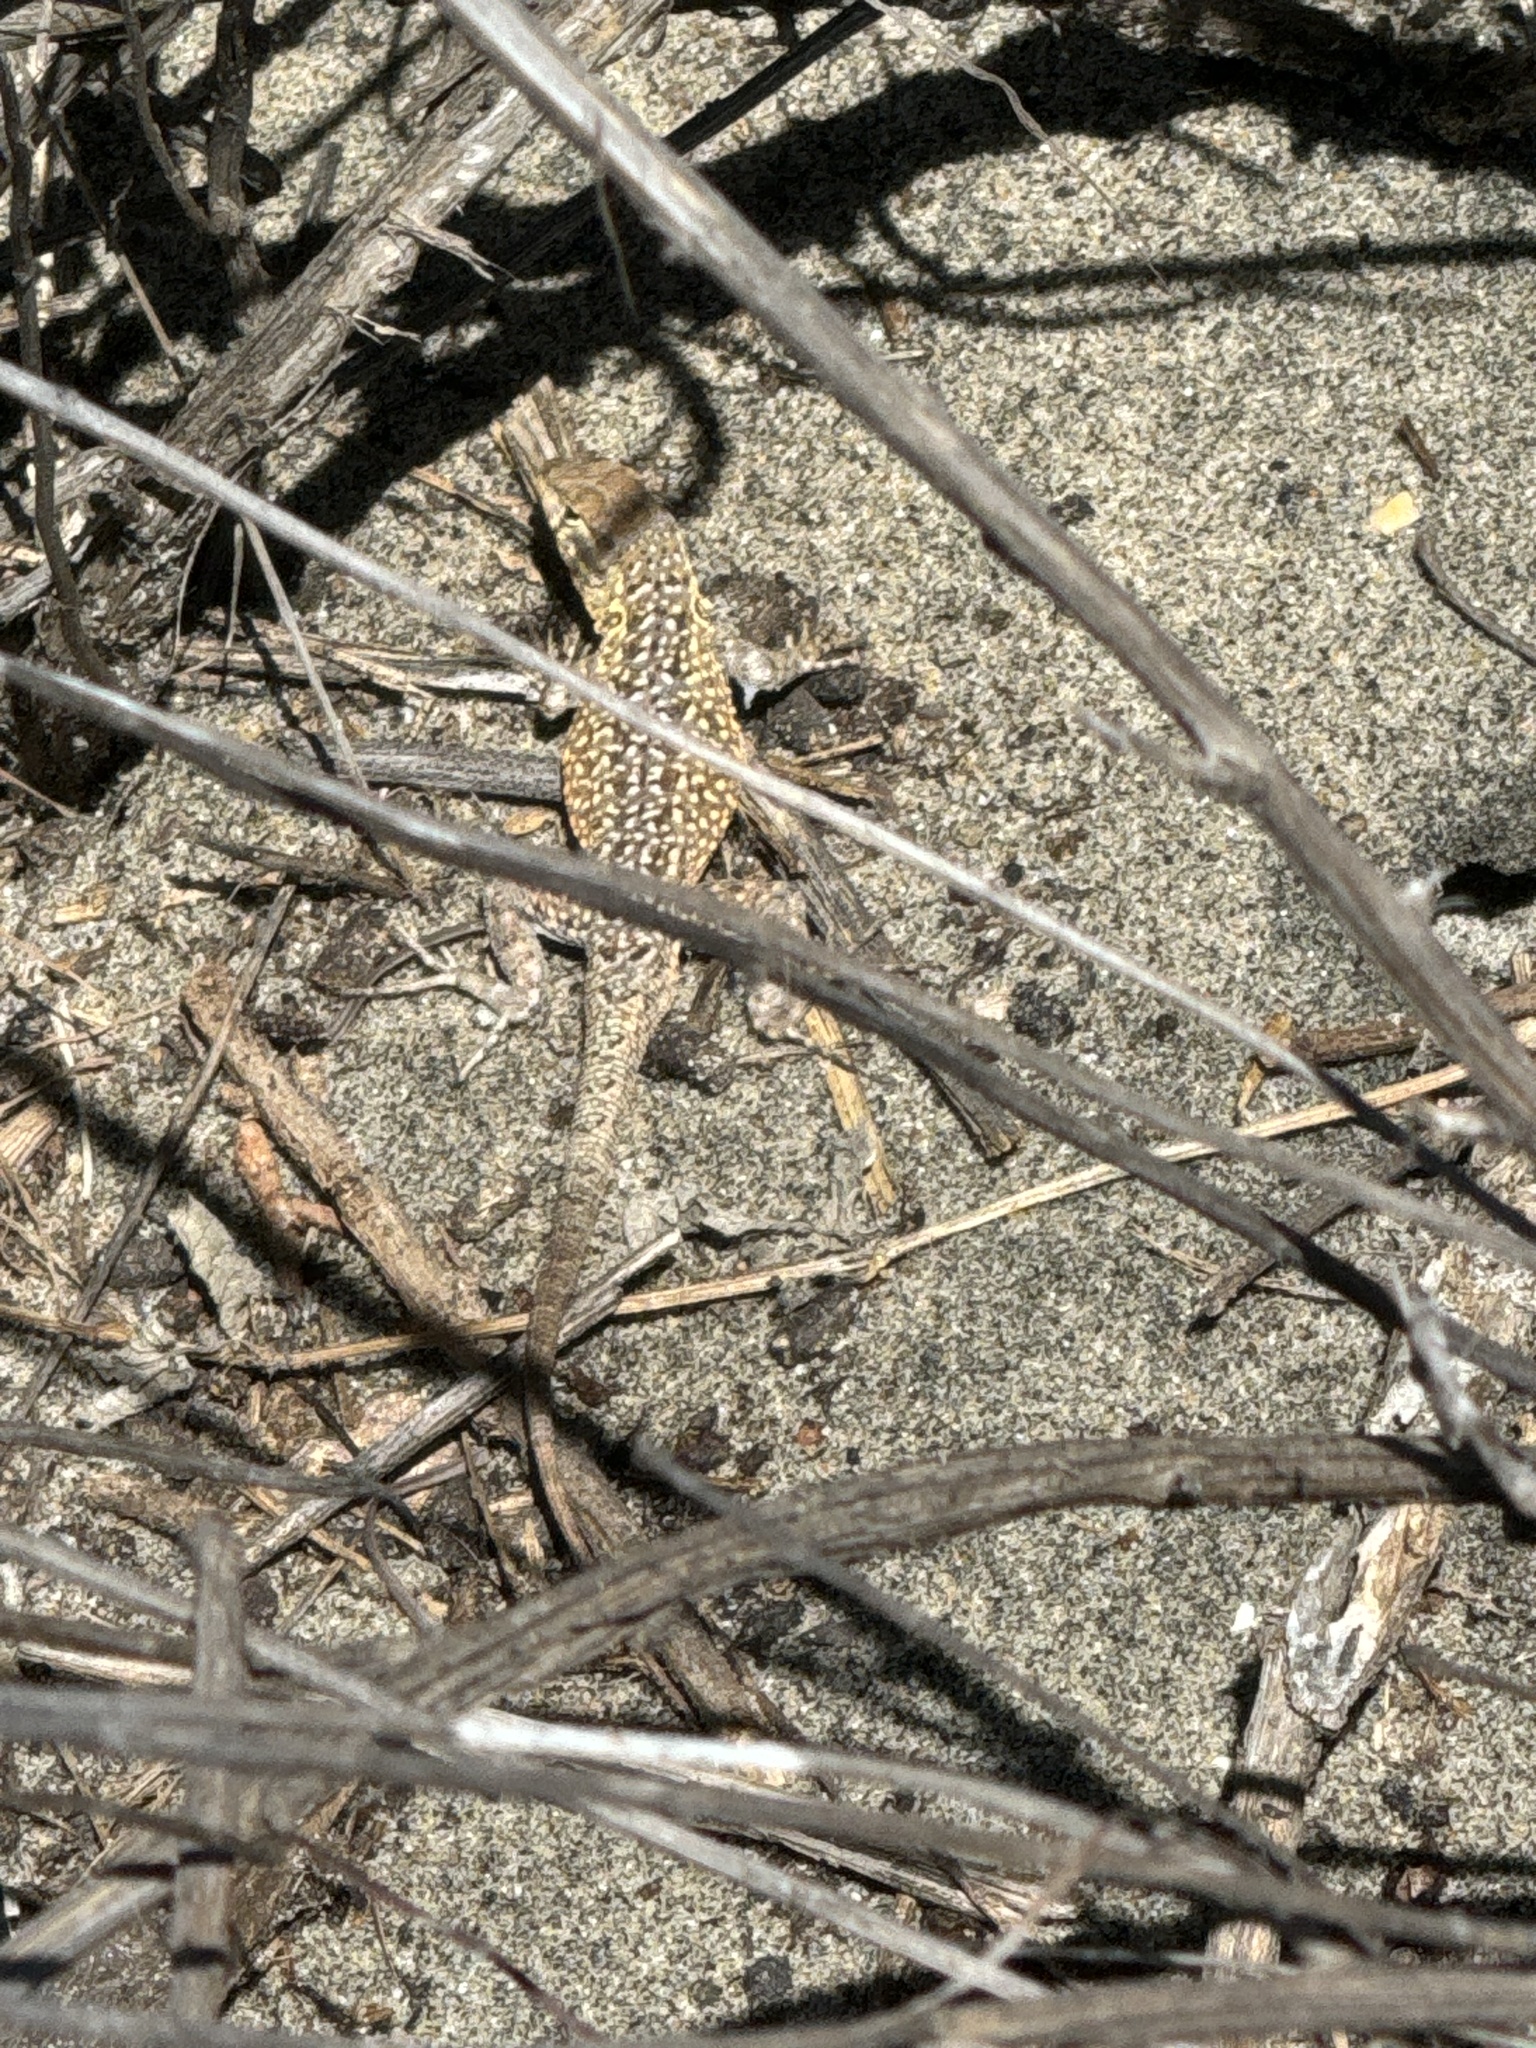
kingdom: Animalia
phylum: Chordata
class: Squamata
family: Phrynosomatidae
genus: Uta
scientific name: Uta stansburiana
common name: Side-blotched lizard
